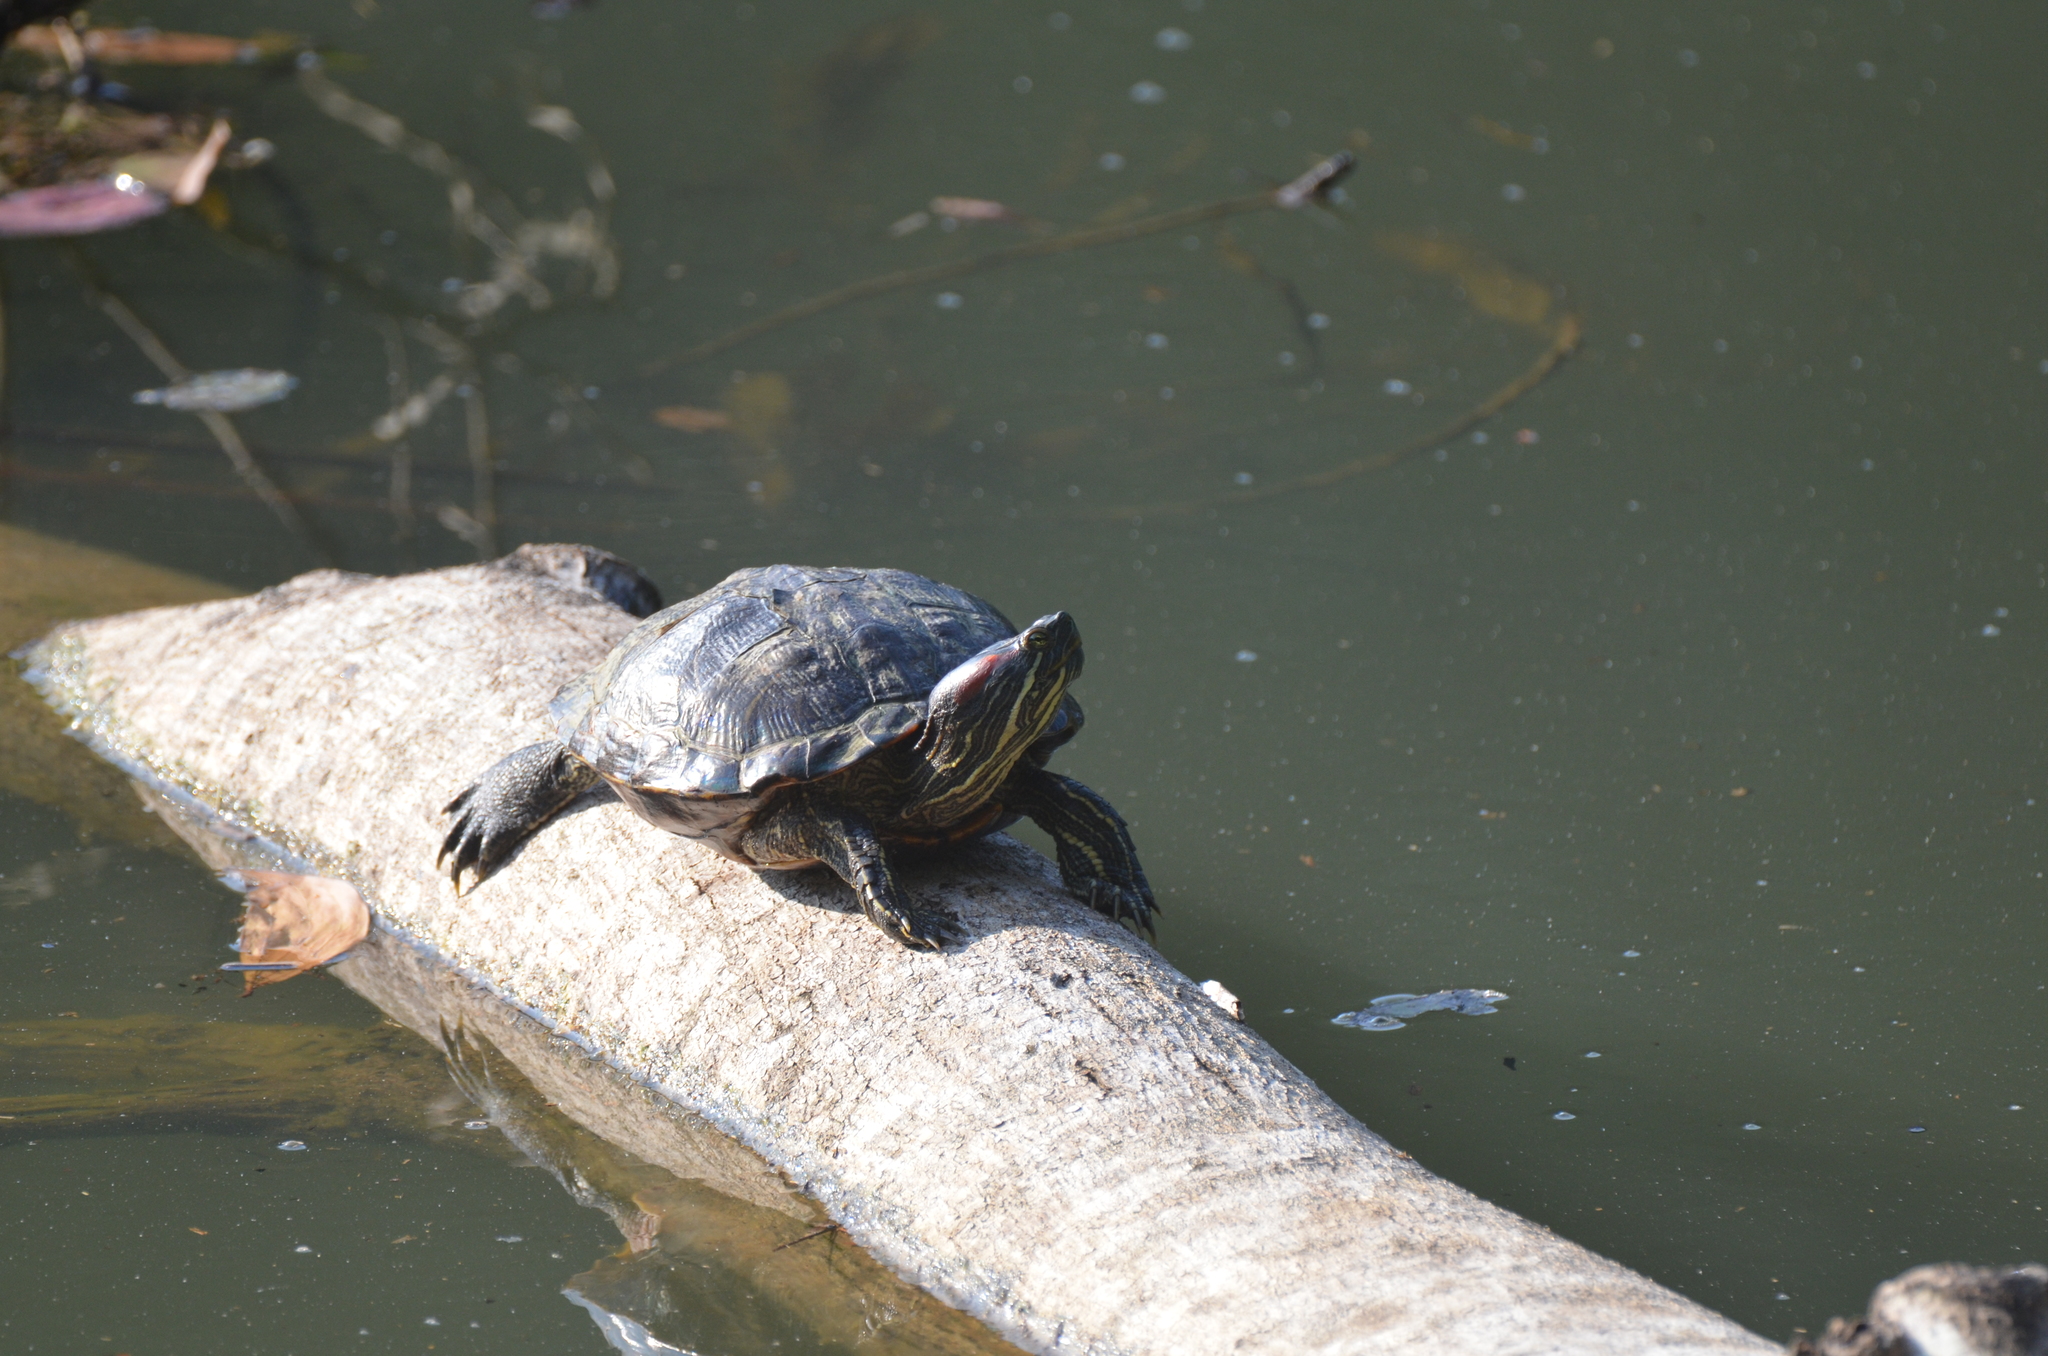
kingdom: Animalia
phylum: Chordata
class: Testudines
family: Emydidae
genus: Trachemys
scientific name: Trachemys scripta
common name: Slider
